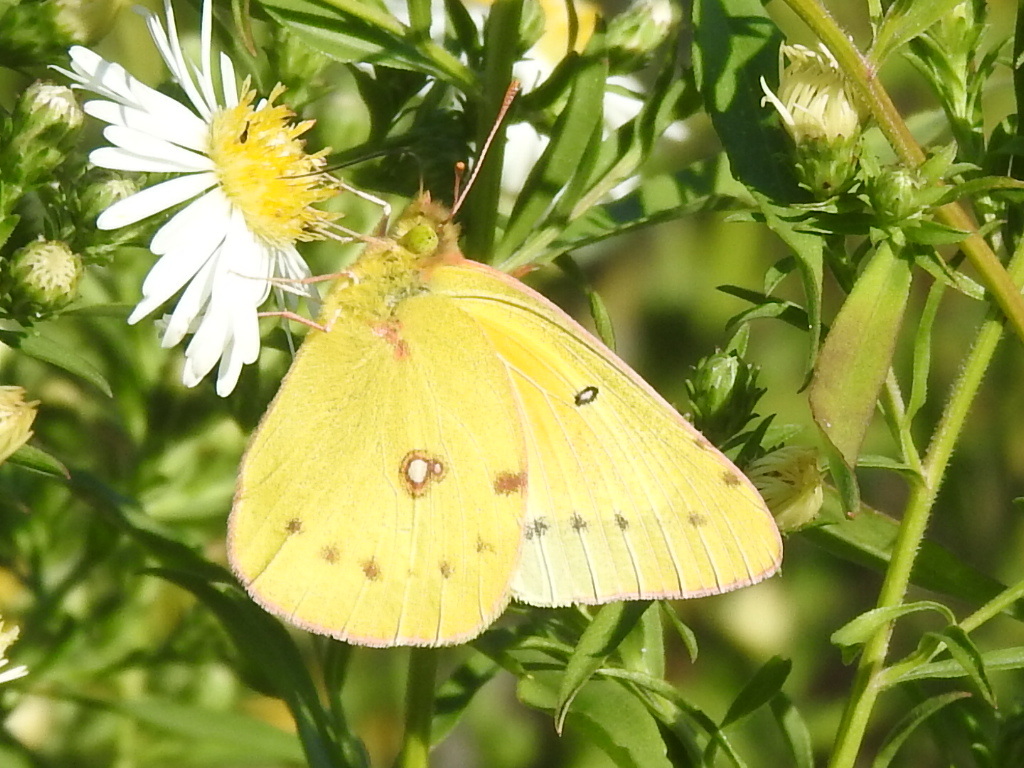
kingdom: Animalia
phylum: Arthropoda
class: Insecta
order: Lepidoptera
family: Pieridae
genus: Colias
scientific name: Colias eurytheme
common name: Alfalfa butterfly
